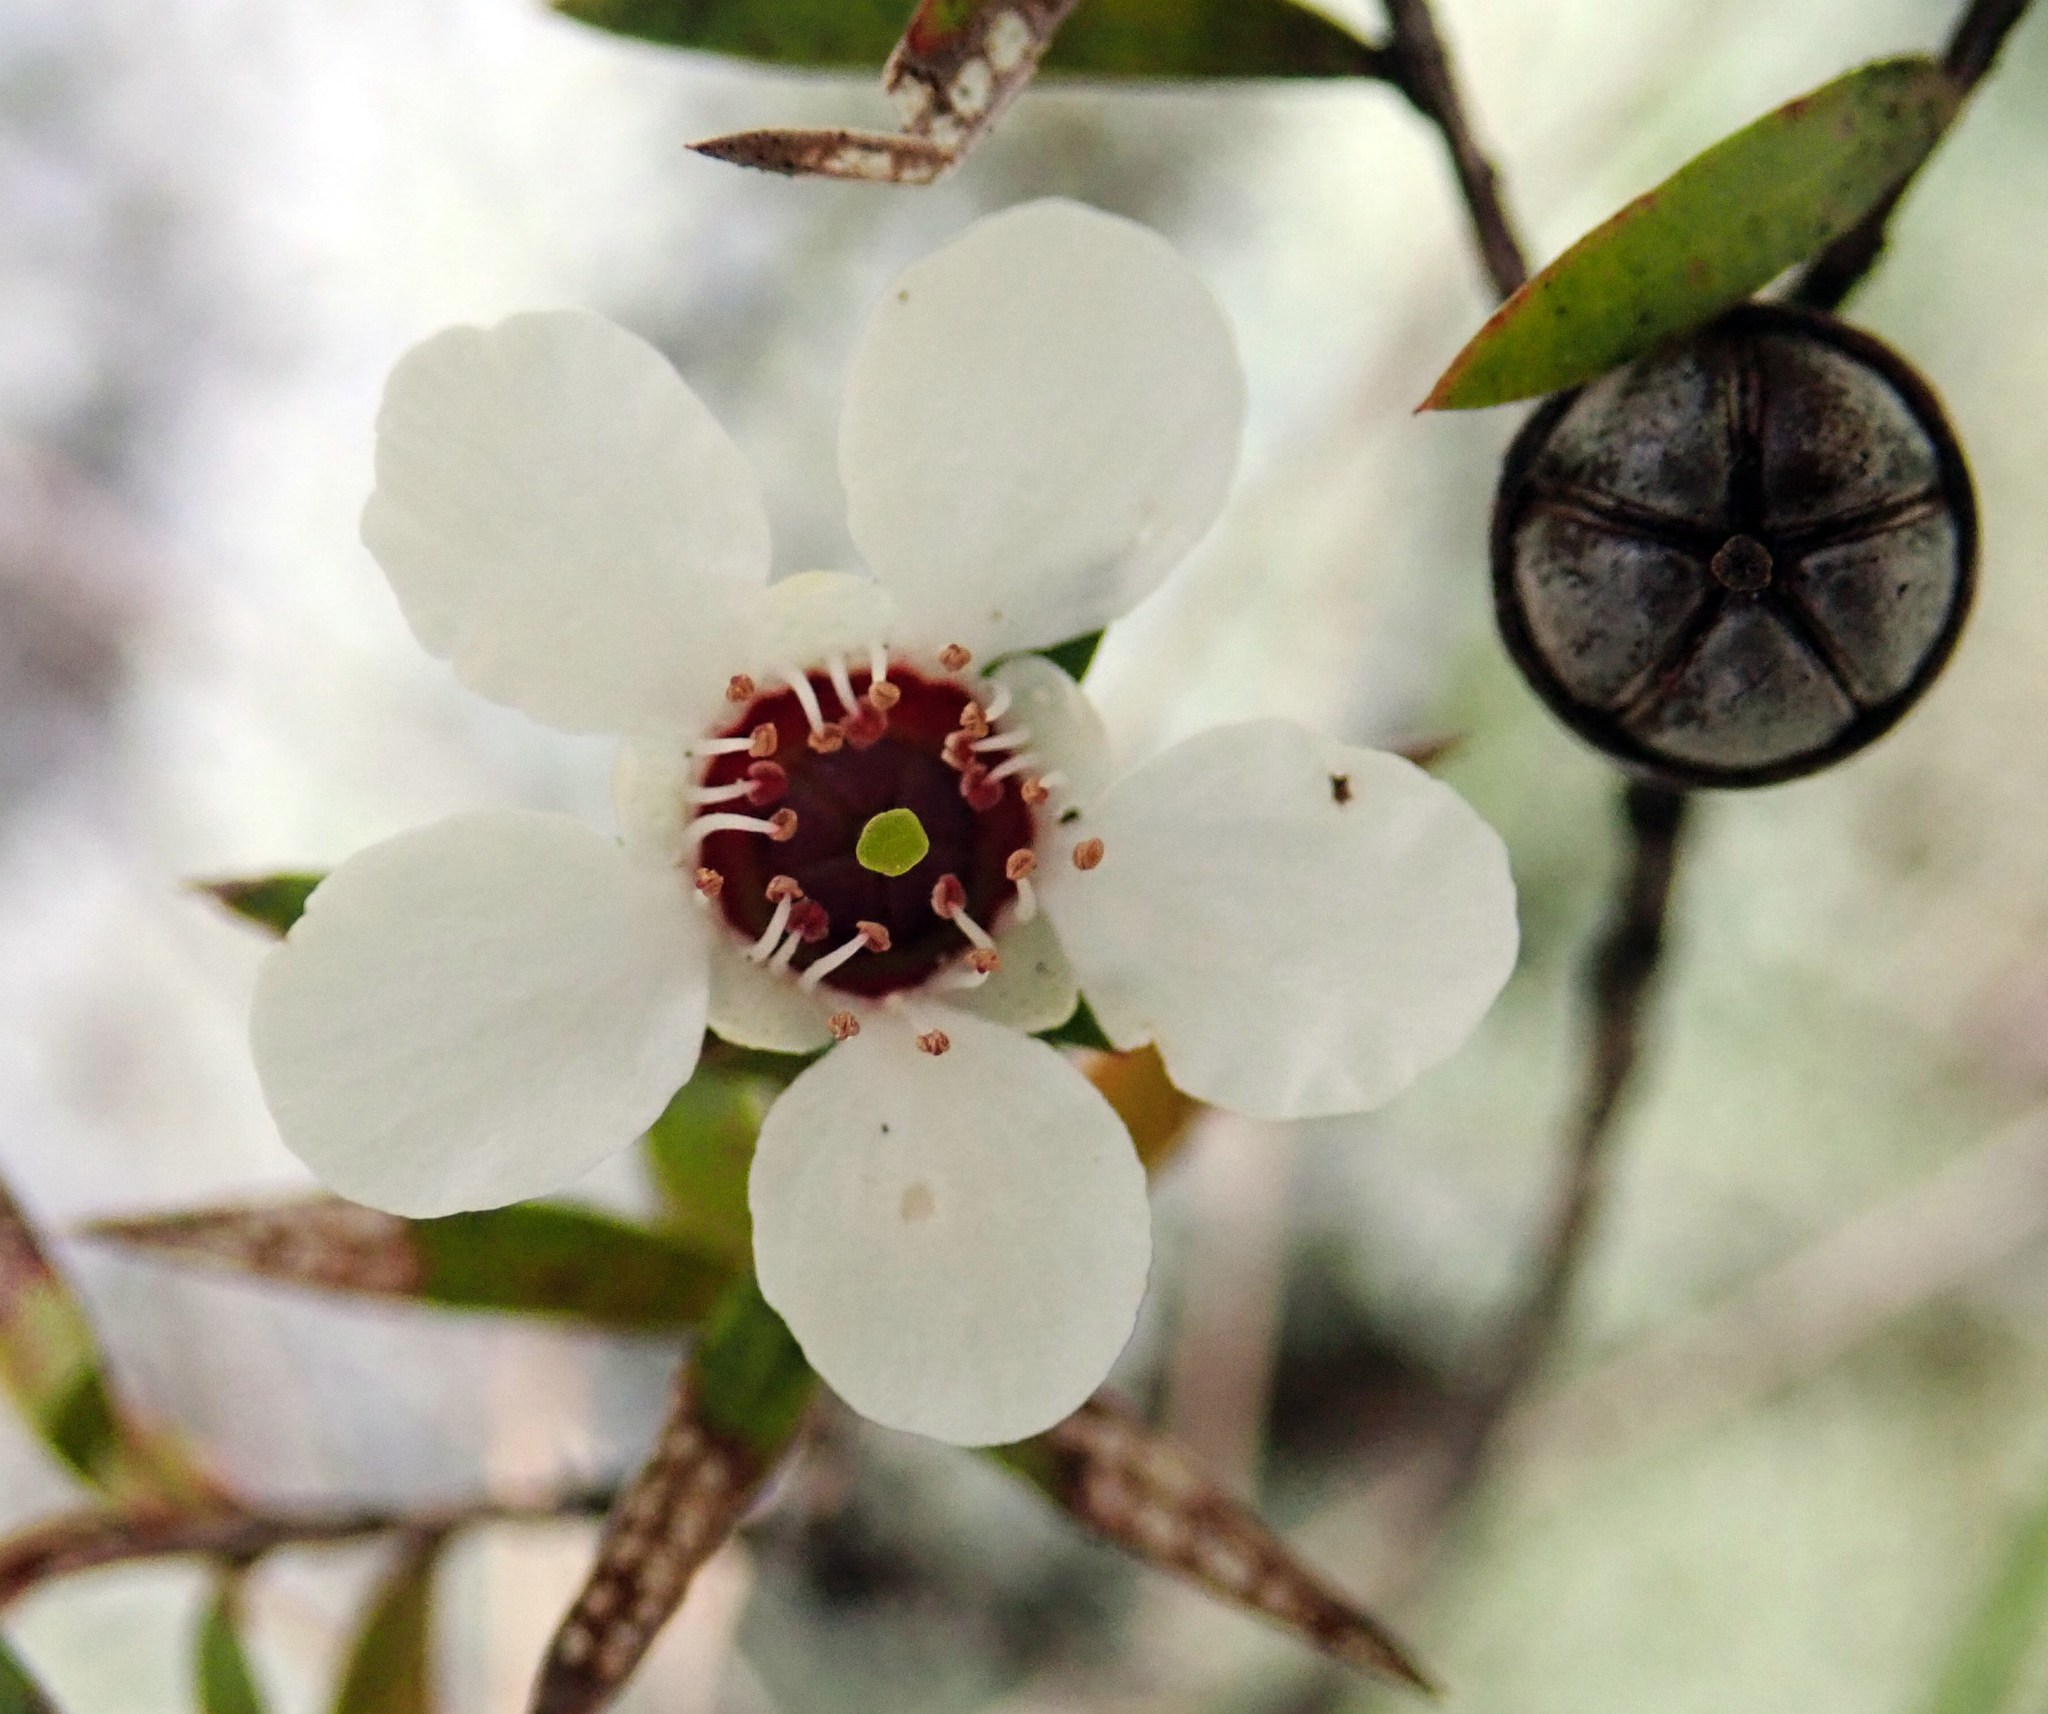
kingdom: Plantae
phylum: Tracheophyta
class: Magnoliopsida
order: Myrtales
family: Myrtaceae
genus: Leptospermum
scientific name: Leptospermum scoparium
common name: Broom tea-tree
